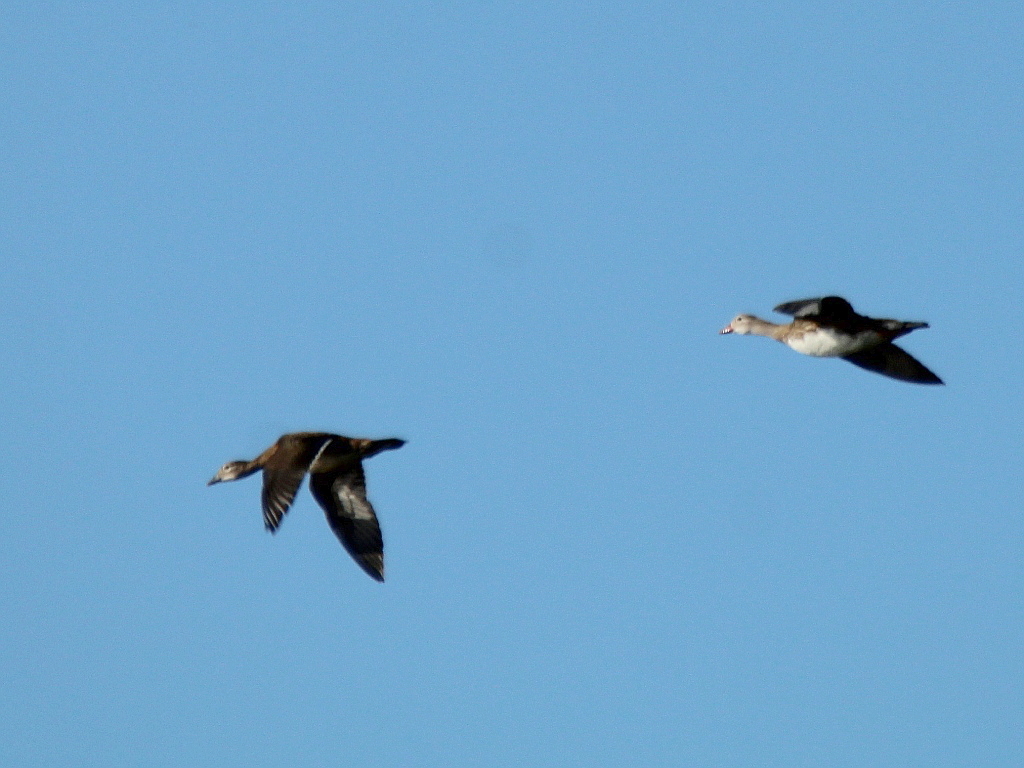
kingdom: Animalia
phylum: Chordata
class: Aves
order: Anseriformes
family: Anatidae
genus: Aix
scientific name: Aix galericulata
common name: Mandarin duck
